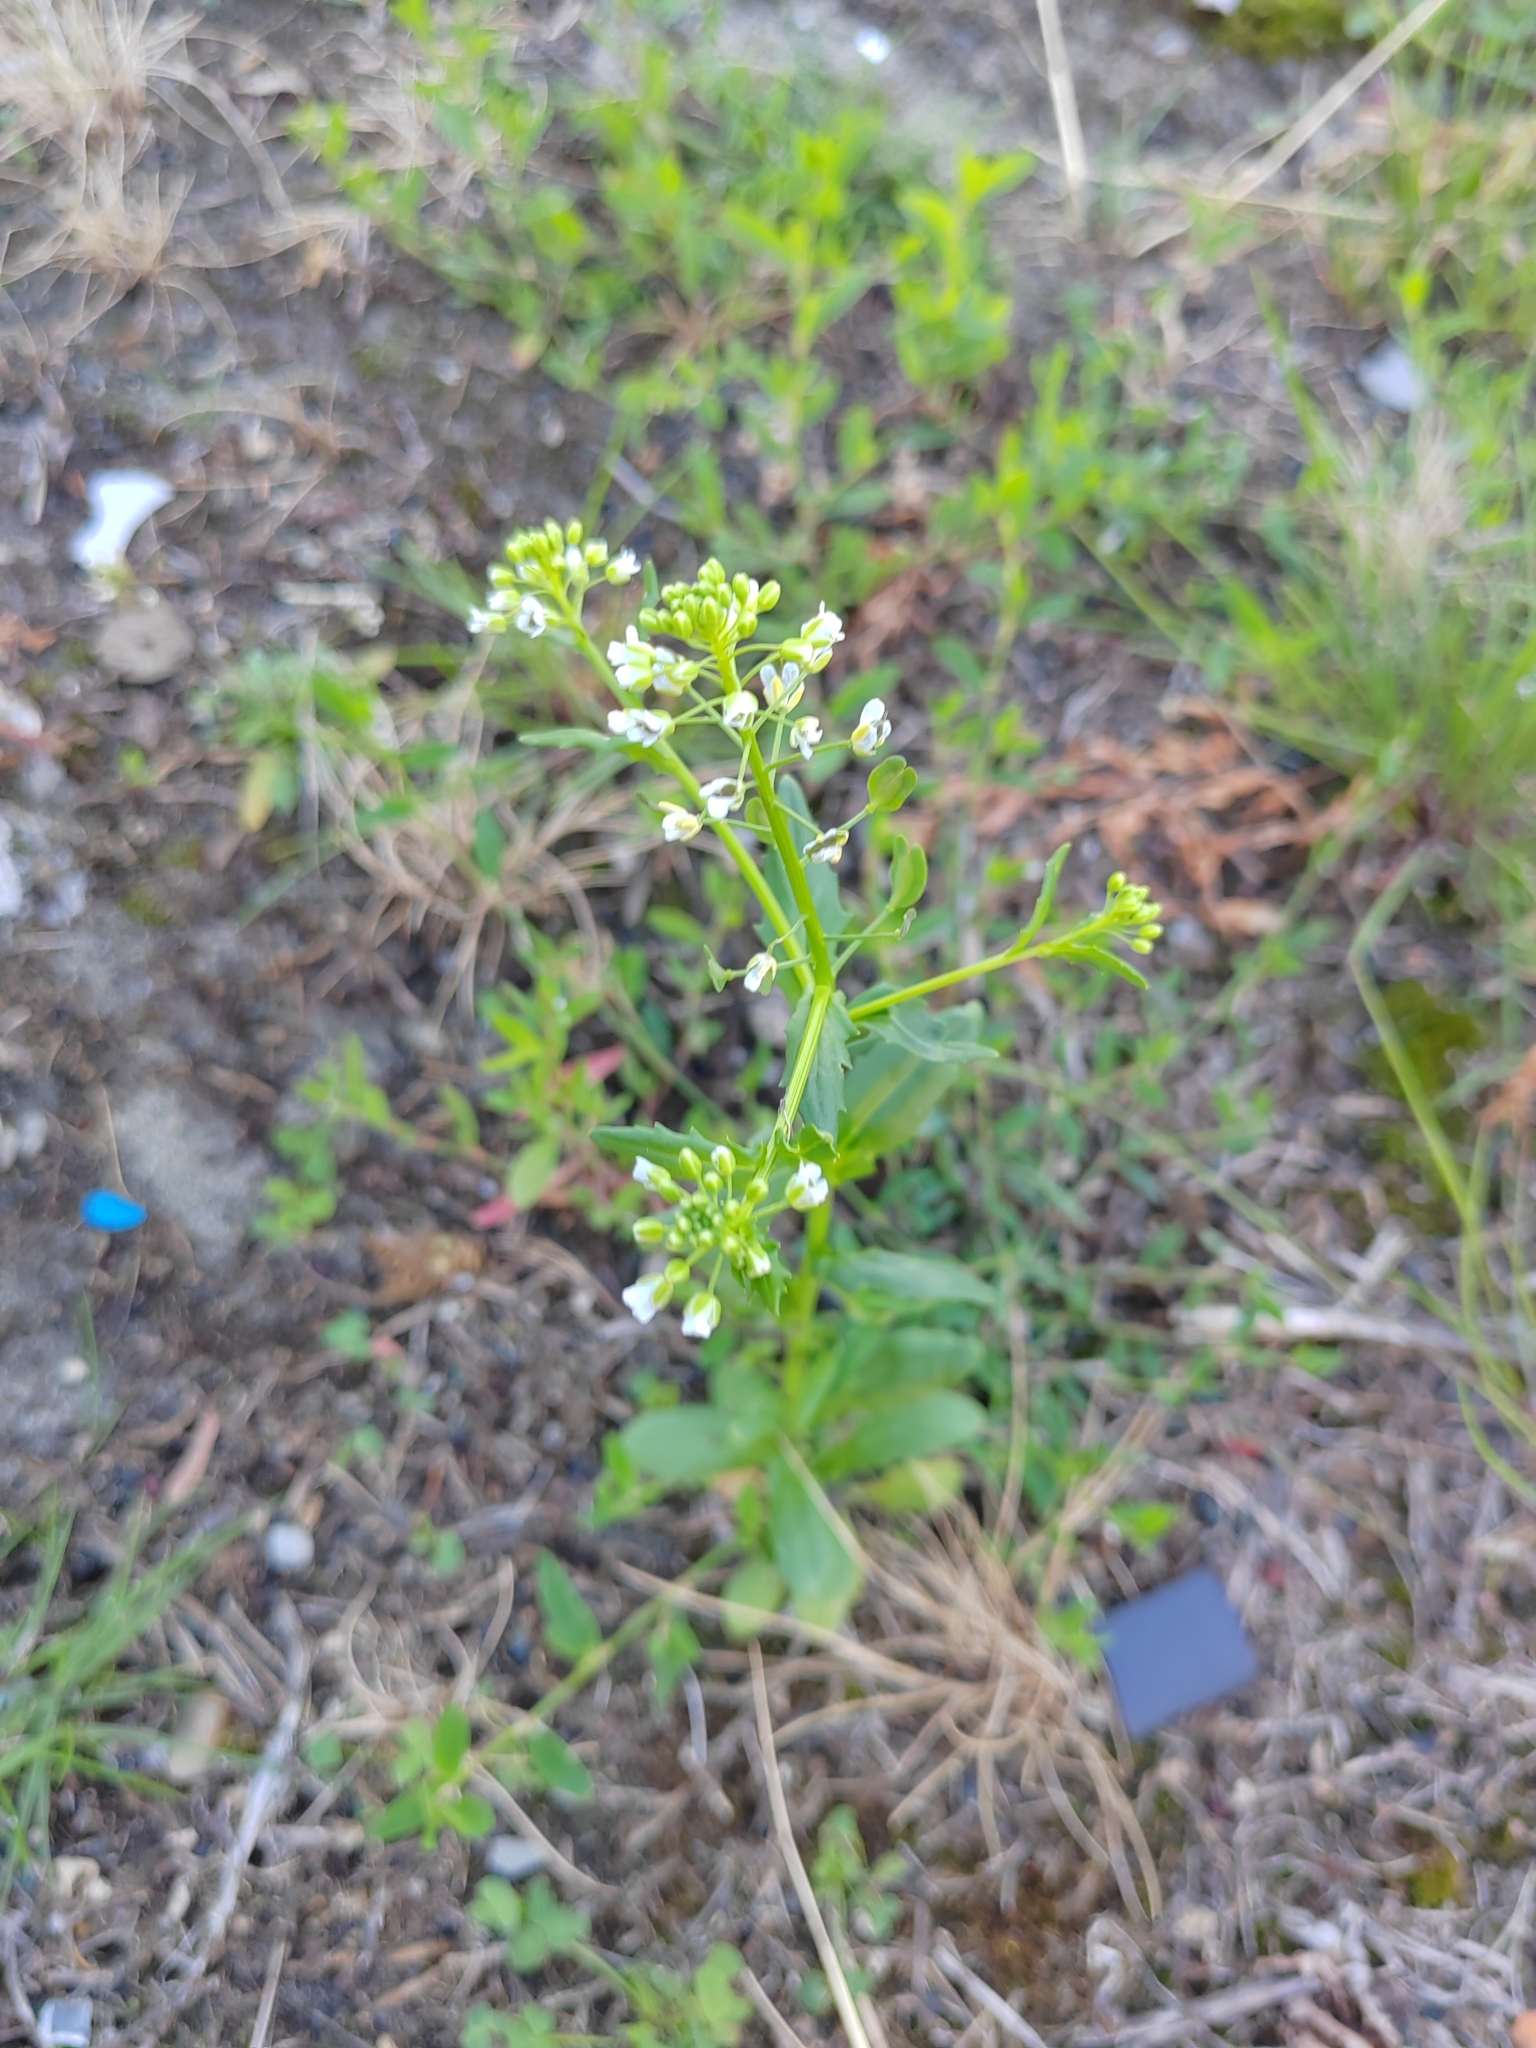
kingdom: Plantae
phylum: Tracheophyta
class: Magnoliopsida
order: Brassicales
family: Brassicaceae
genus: Thlaspi
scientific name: Thlaspi arvense
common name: Field pennycress
